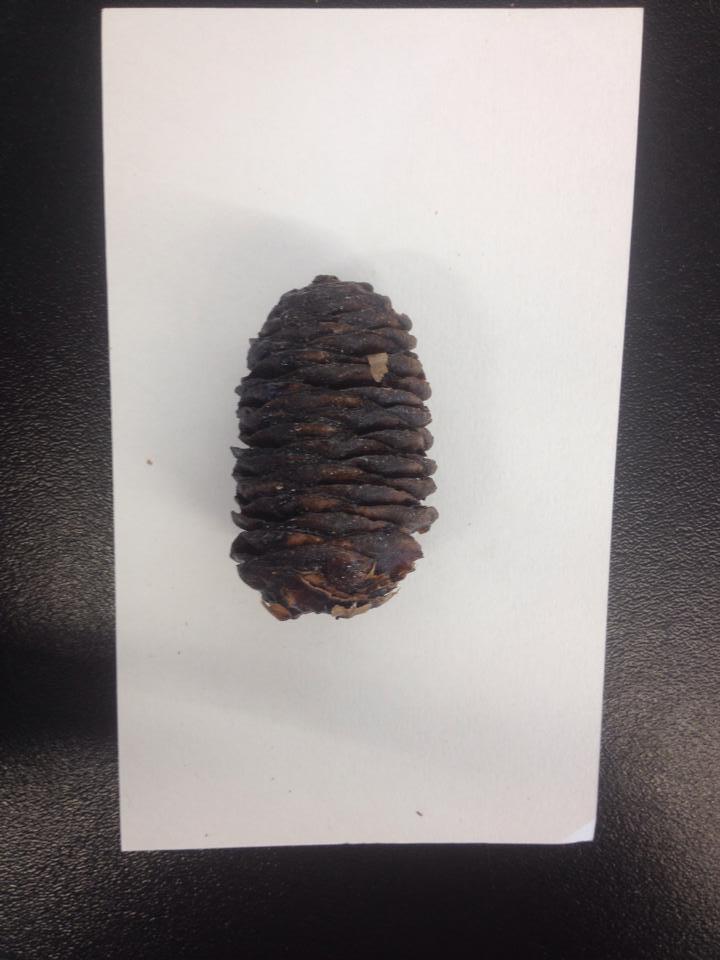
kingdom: Plantae
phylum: Tracheophyta
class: Pinopsida
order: Pinales
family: Pinaceae
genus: Abies
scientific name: Abies lasiocarpa
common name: Subalpine fir
